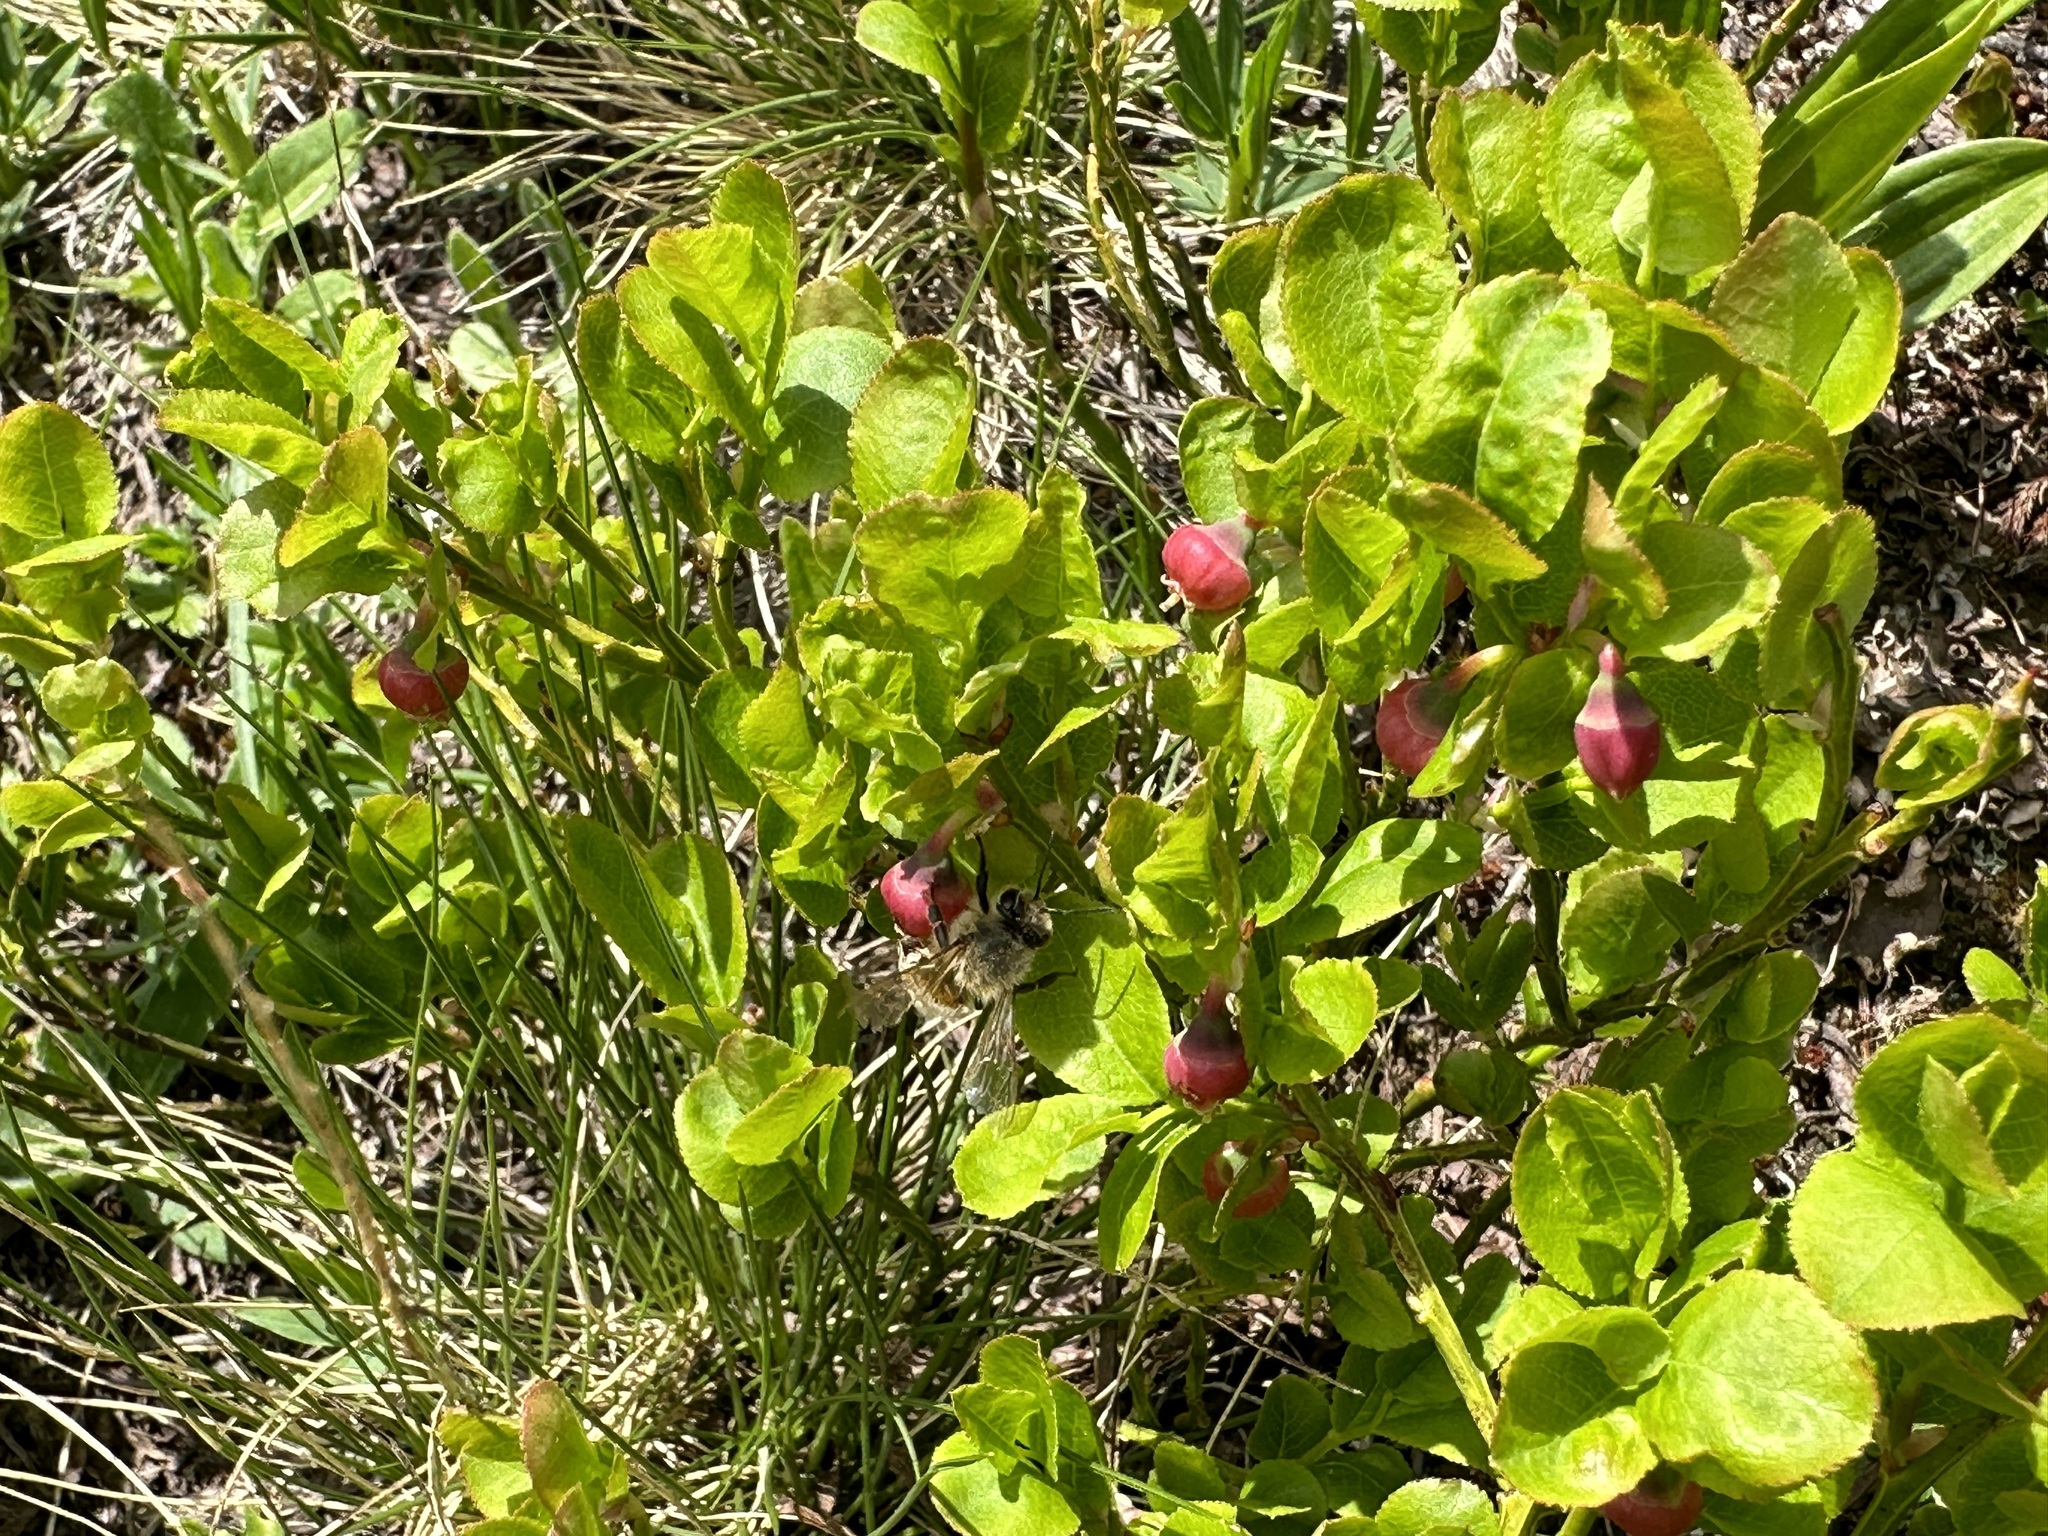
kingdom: Plantae
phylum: Tracheophyta
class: Magnoliopsida
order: Ericales
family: Ericaceae
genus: Vaccinium
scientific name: Vaccinium myrtillus
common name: Bilberry
